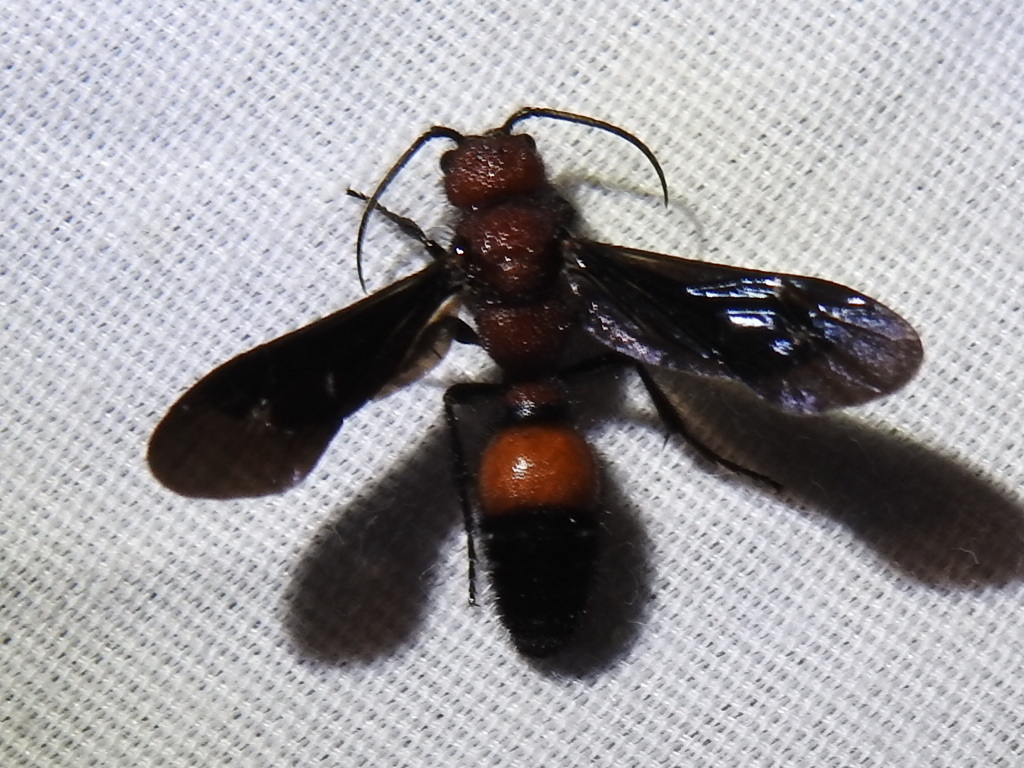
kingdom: Animalia
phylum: Arthropoda
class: Insecta
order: Hymenoptera
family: Mutillidae
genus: Sphaeropthalma
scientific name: Sphaeropthalma
